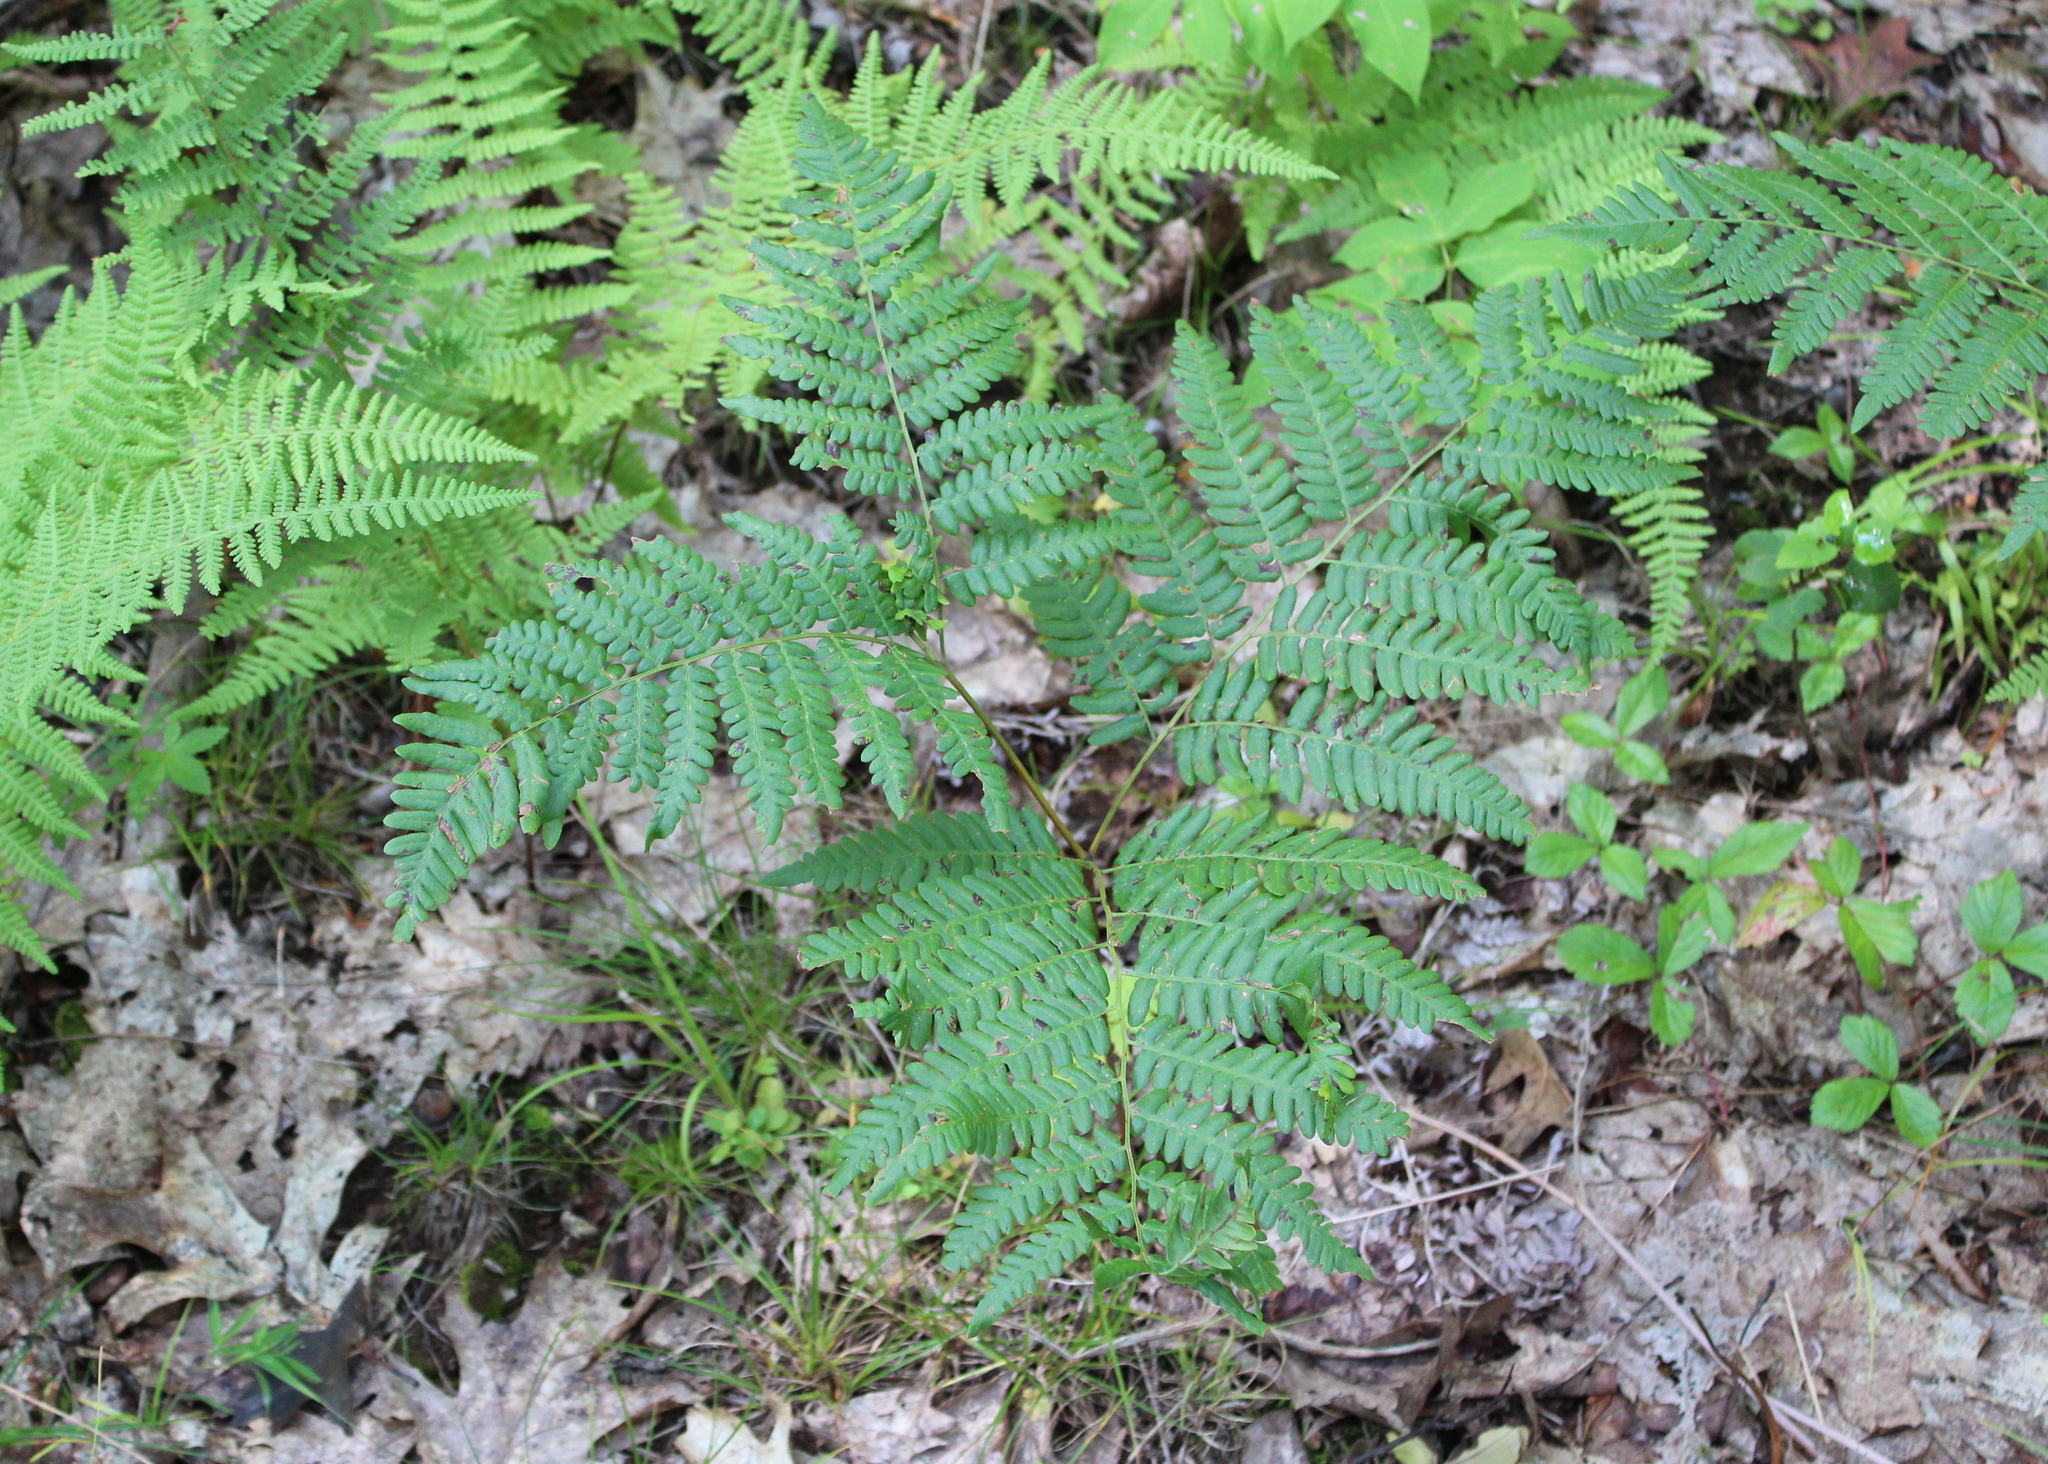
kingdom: Plantae
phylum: Tracheophyta
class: Polypodiopsida
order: Polypodiales
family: Dennstaedtiaceae
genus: Pteridium
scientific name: Pteridium aquilinum
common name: Bracken
